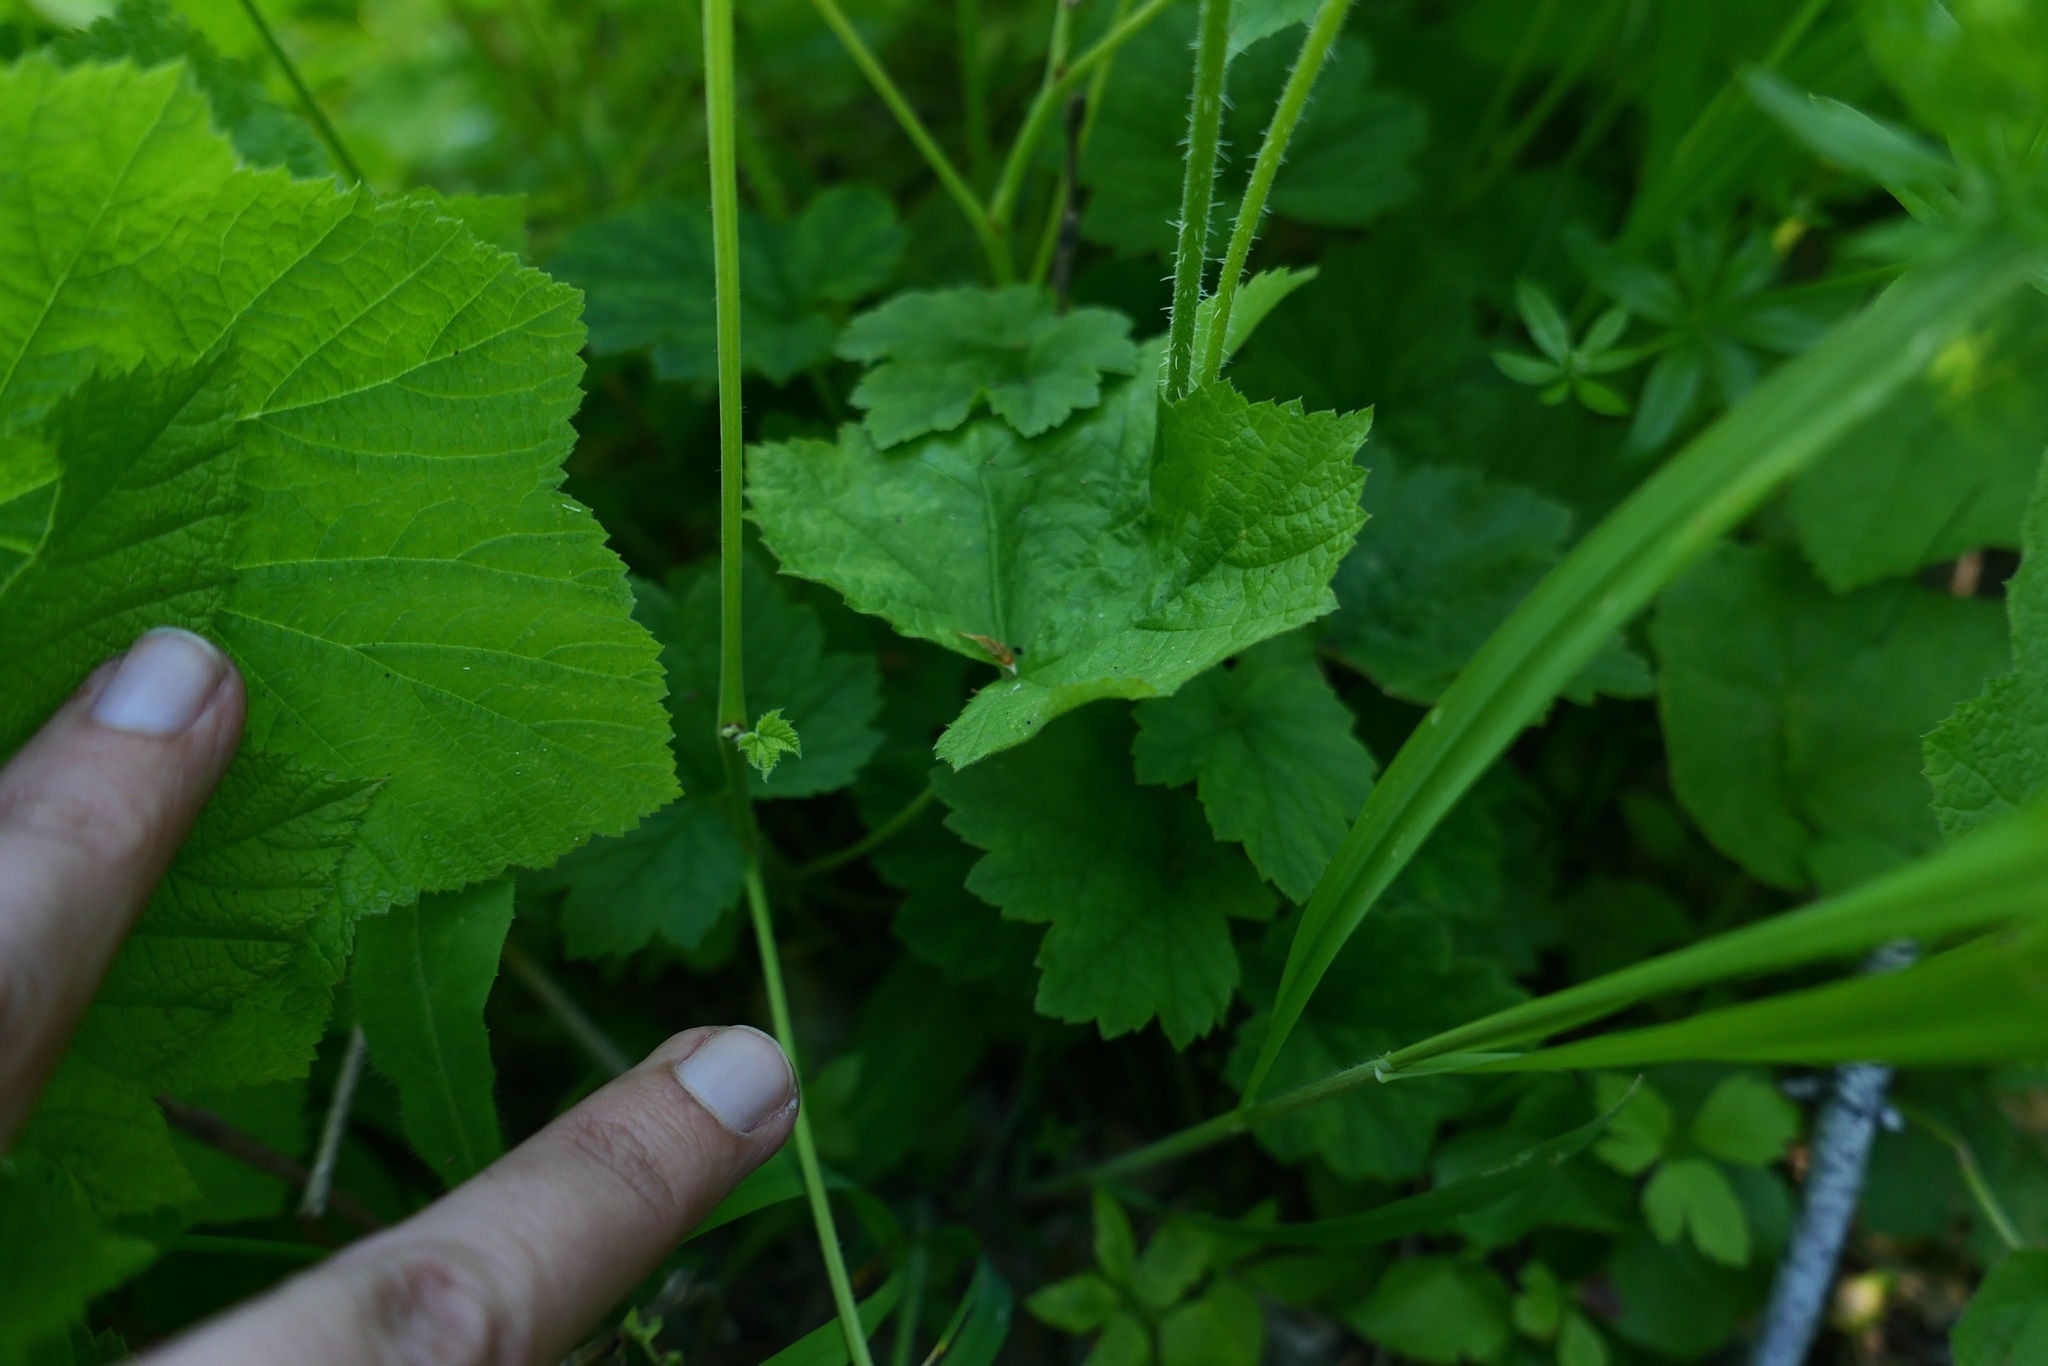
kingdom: Plantae
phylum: Tracheophyta
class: Magnoliopsida
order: Saxifragales
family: Saxifragaceae
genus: Tellima
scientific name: Tellima grandiflora
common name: Fringecups
